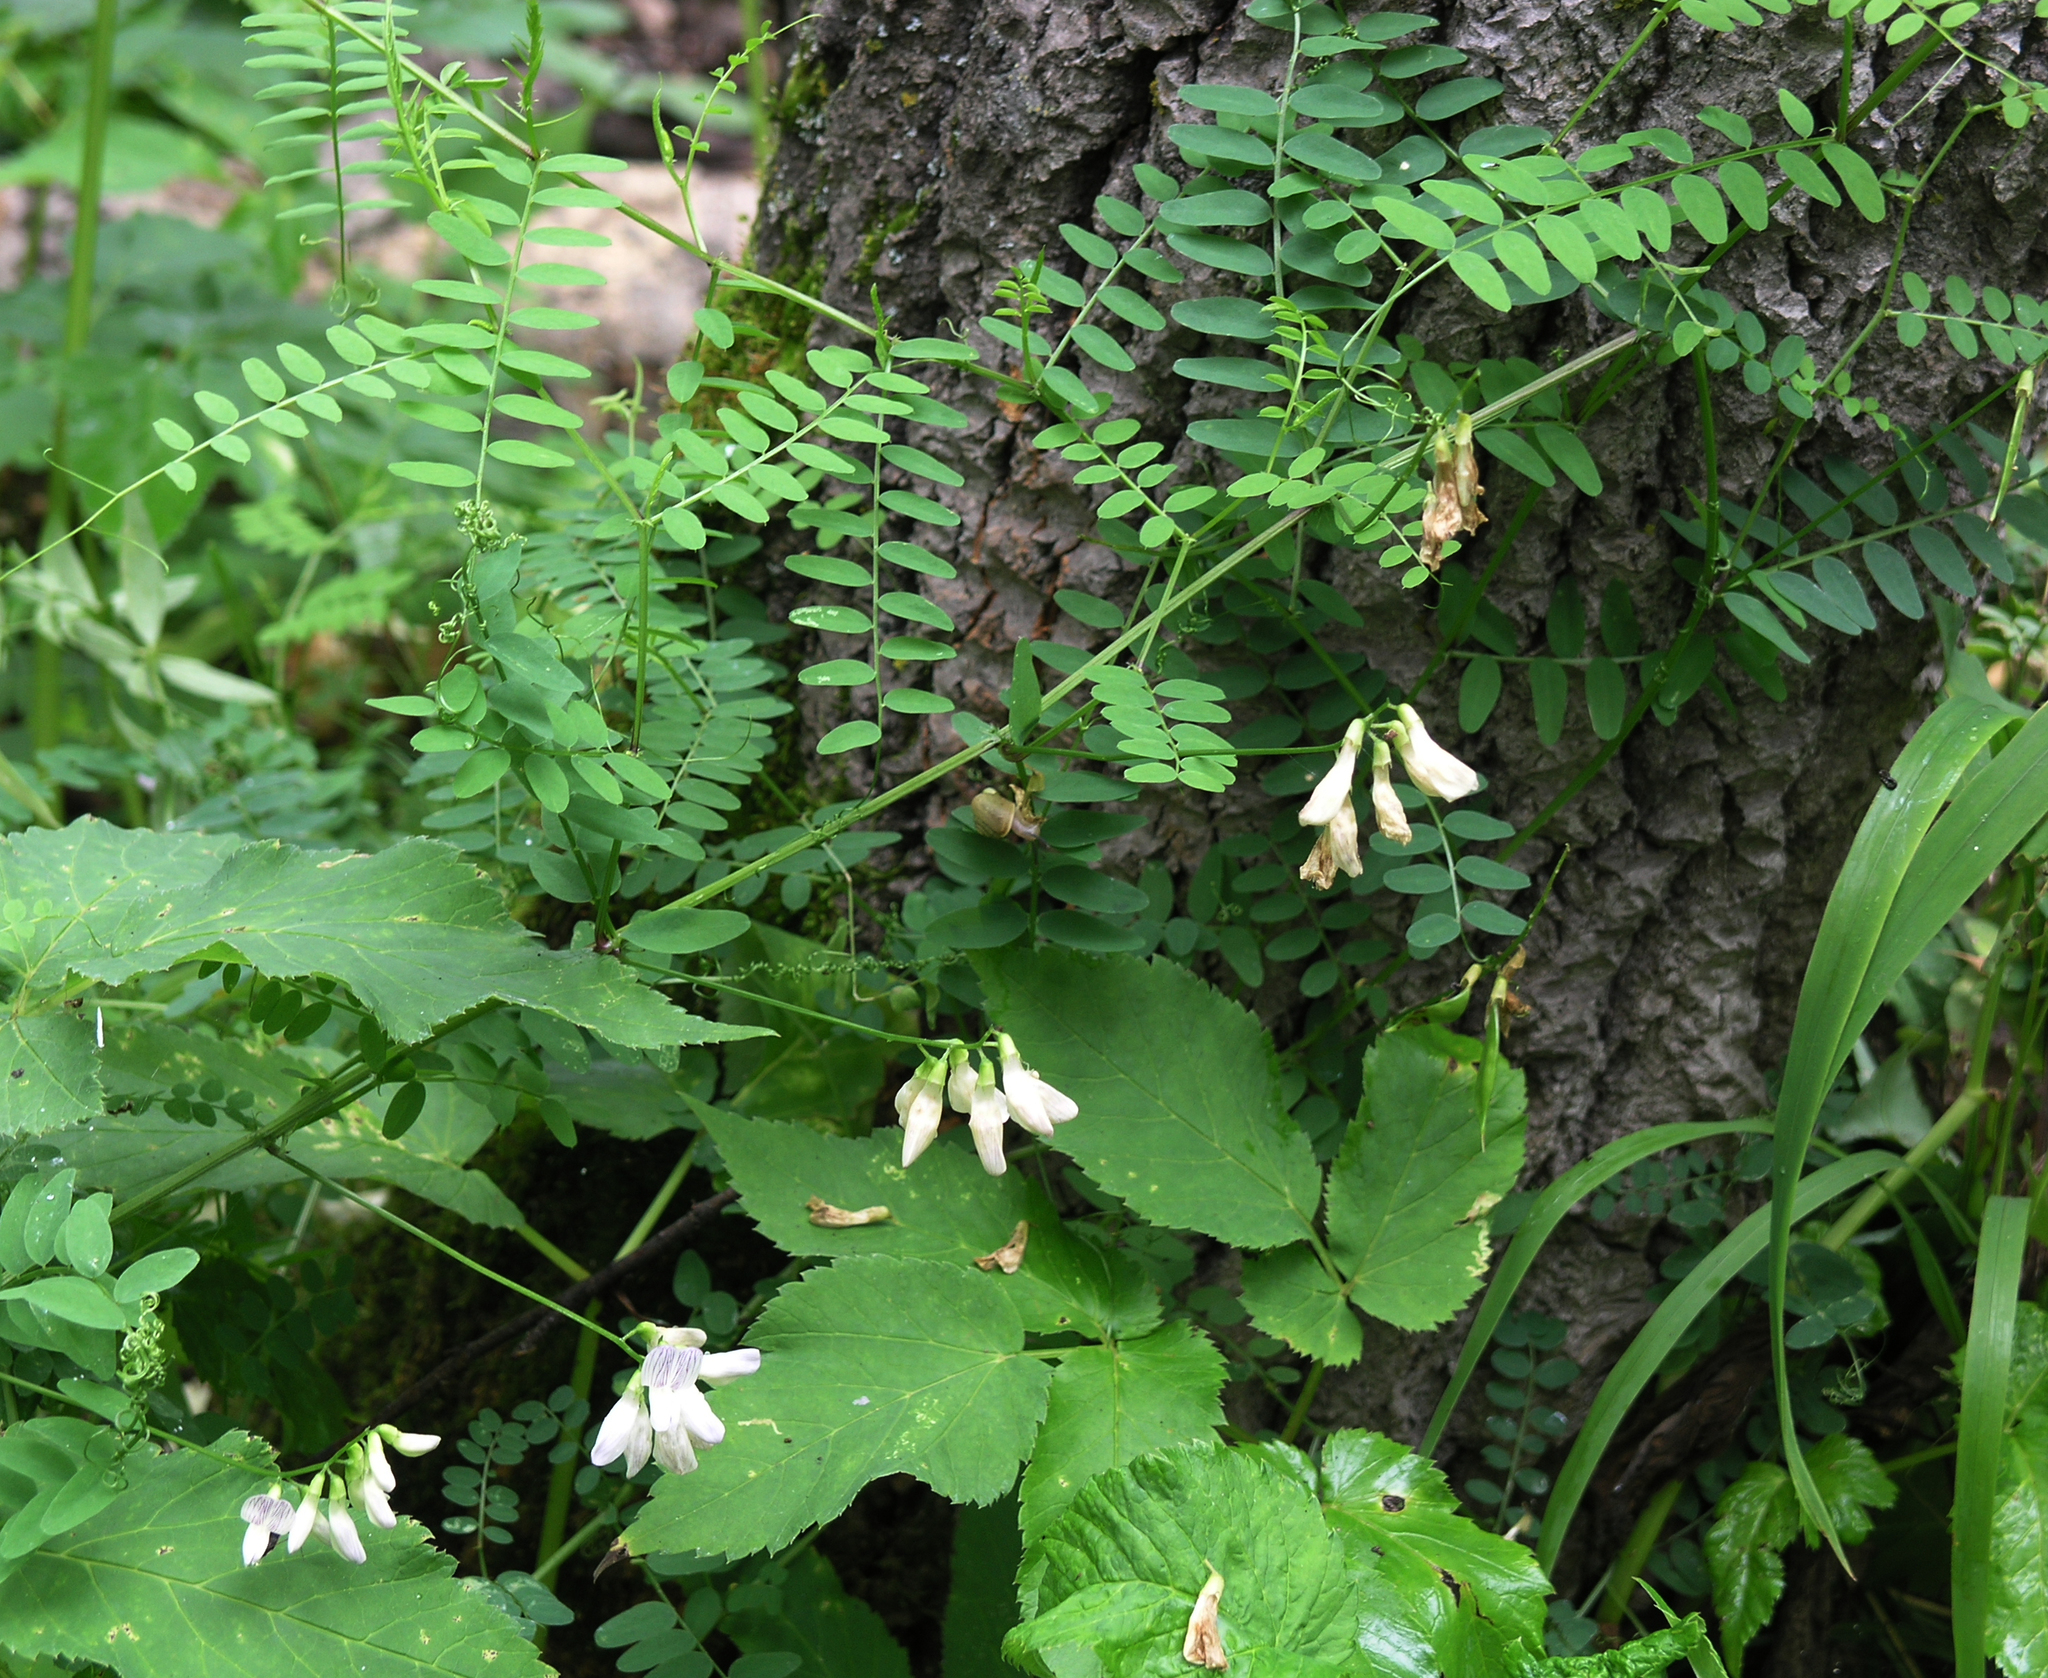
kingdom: Plantae
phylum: Tracheophyta
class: Magnoliopsida
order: Fabales
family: Fabaceae
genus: Vicia
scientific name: Vicia sylvatica
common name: Wood vetch
